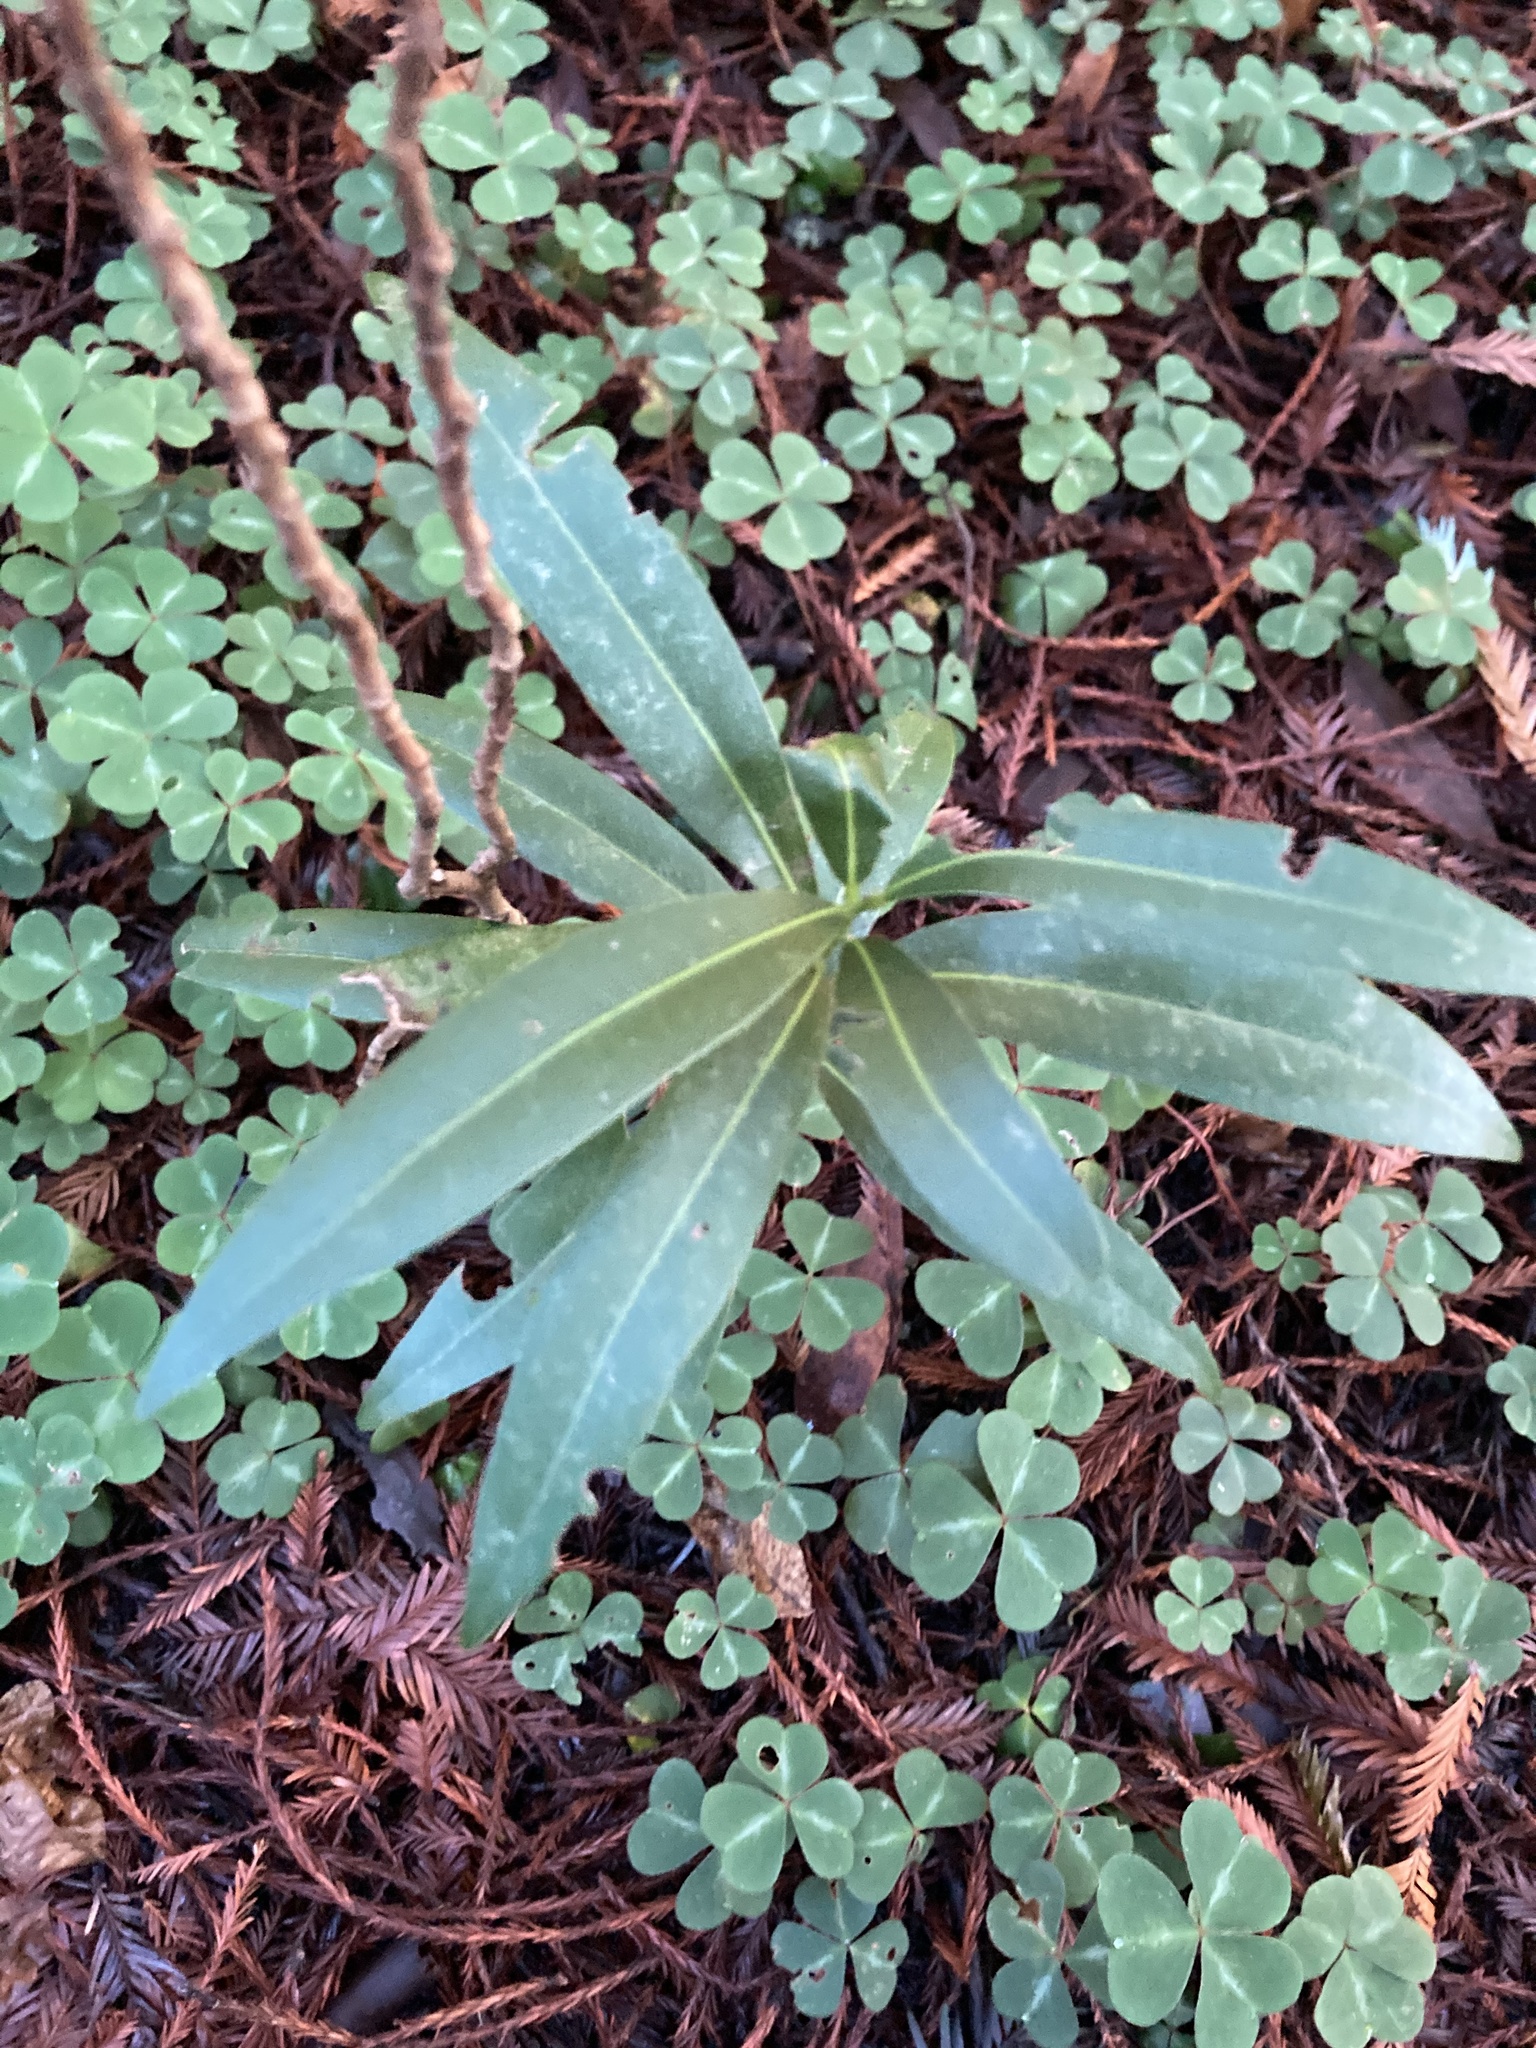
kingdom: Plantae
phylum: Tracheophyta
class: Magnoliopsida
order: Laurales
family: Lauraceae
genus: Umbellularia
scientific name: Umbellularia californica
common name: California bay
